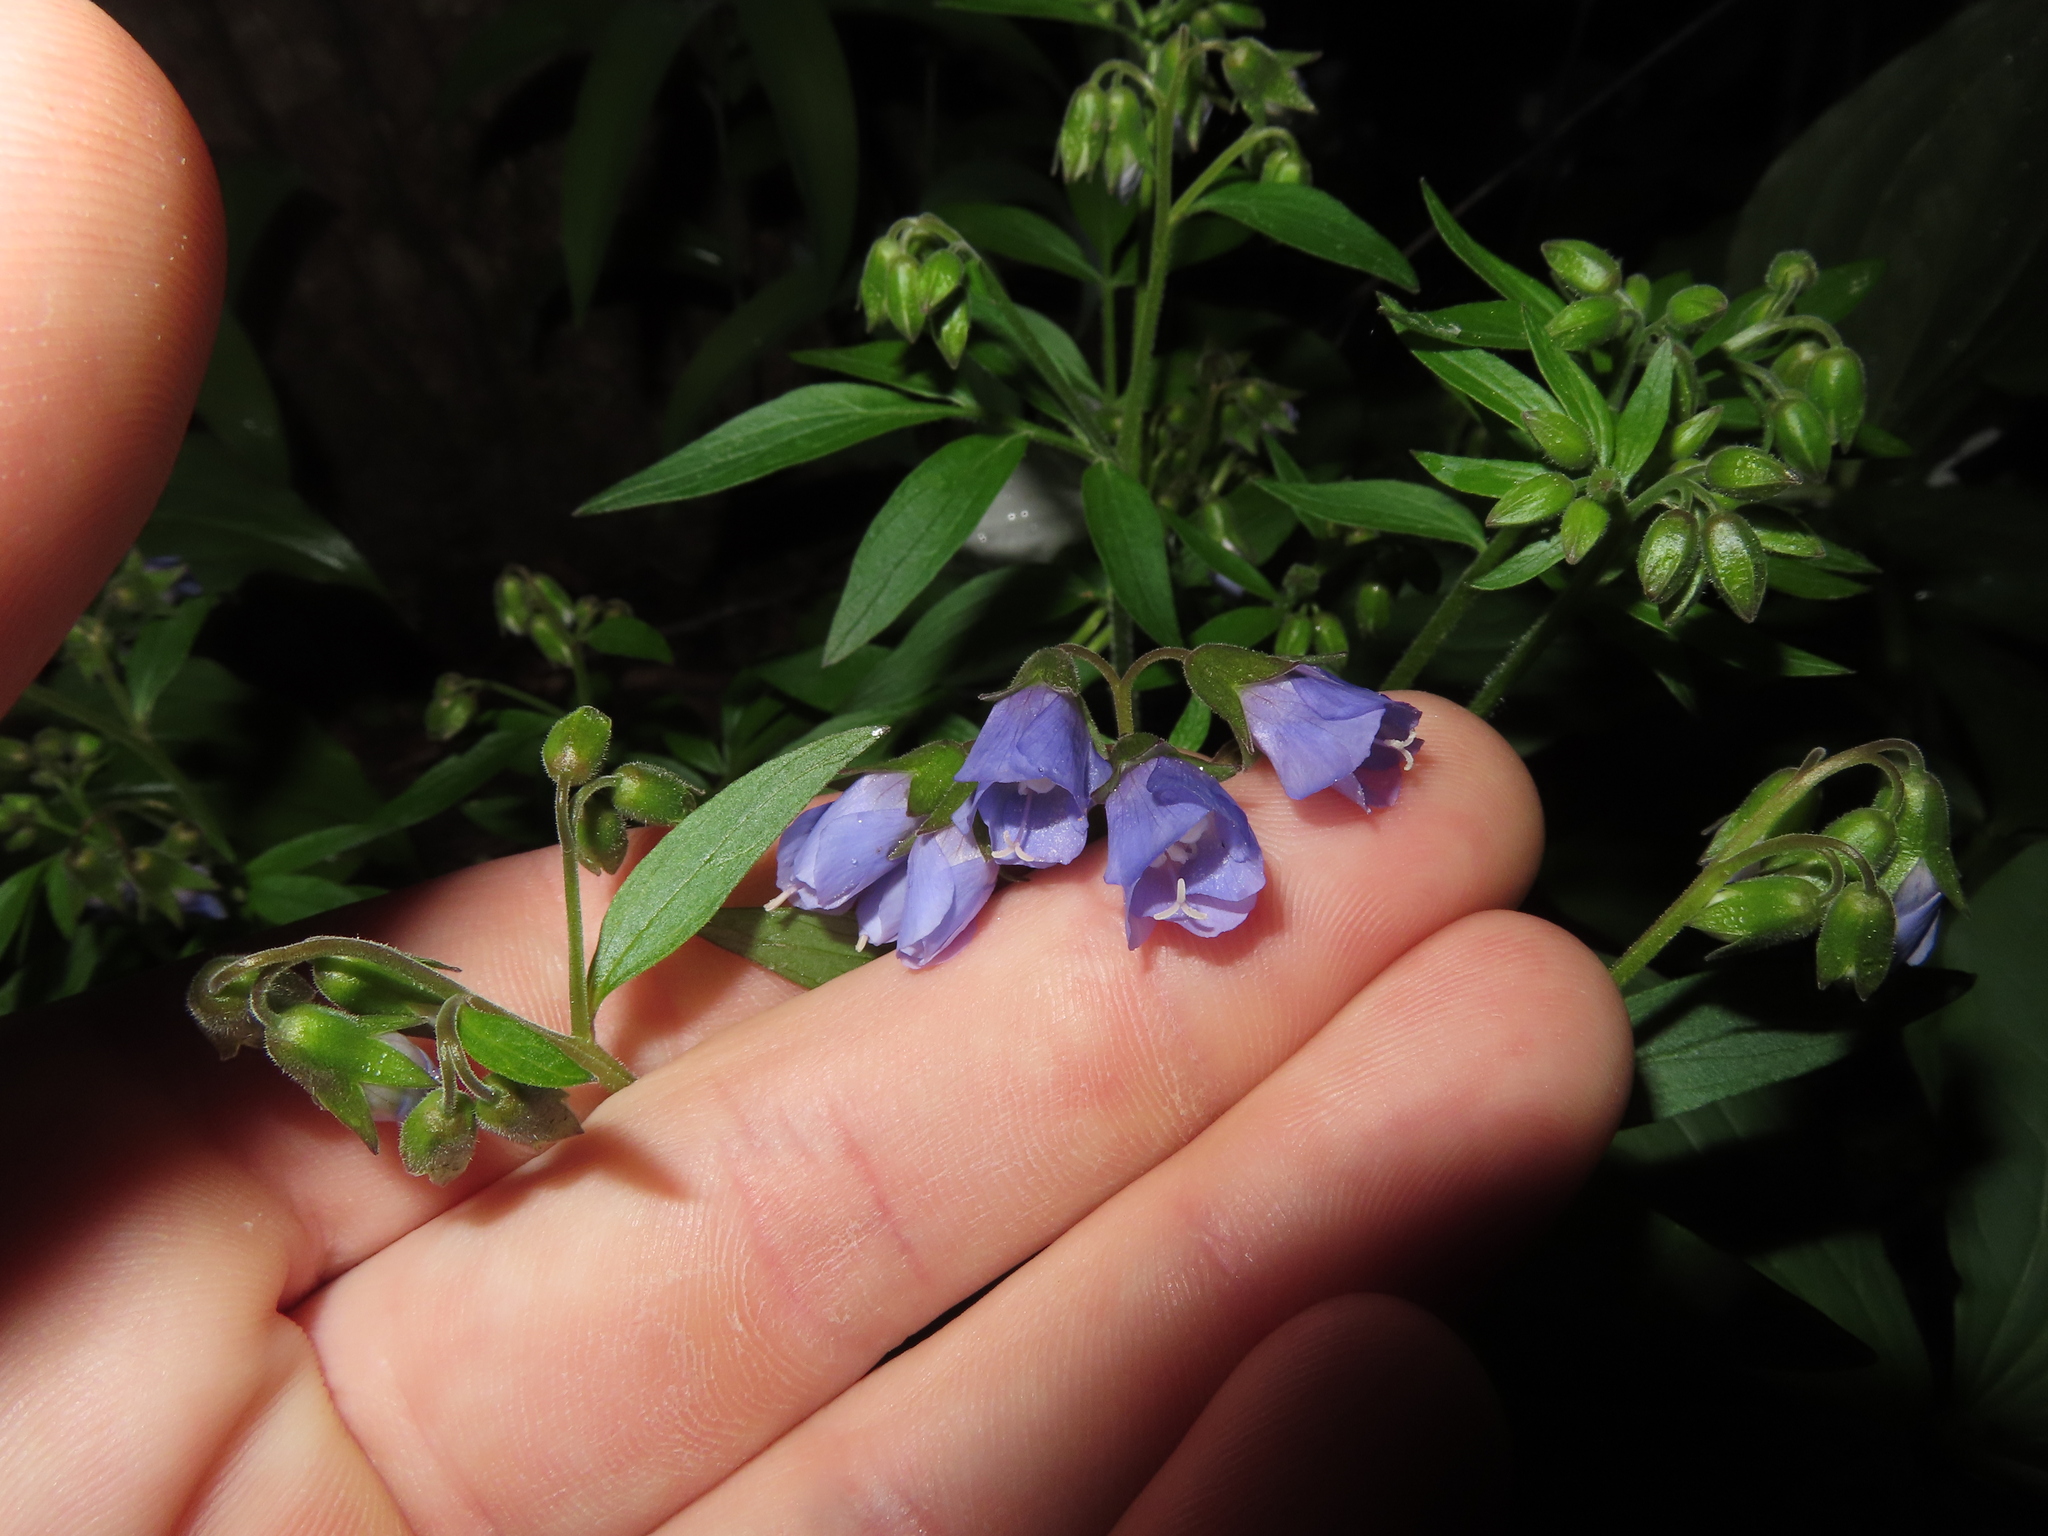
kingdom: Plantae
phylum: Tracheophyta
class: Magnoliopsida
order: Ericales
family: Polemoniaceae
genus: Polemonium
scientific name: Polemonium reptans
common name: Creeping jacob's-ladder
